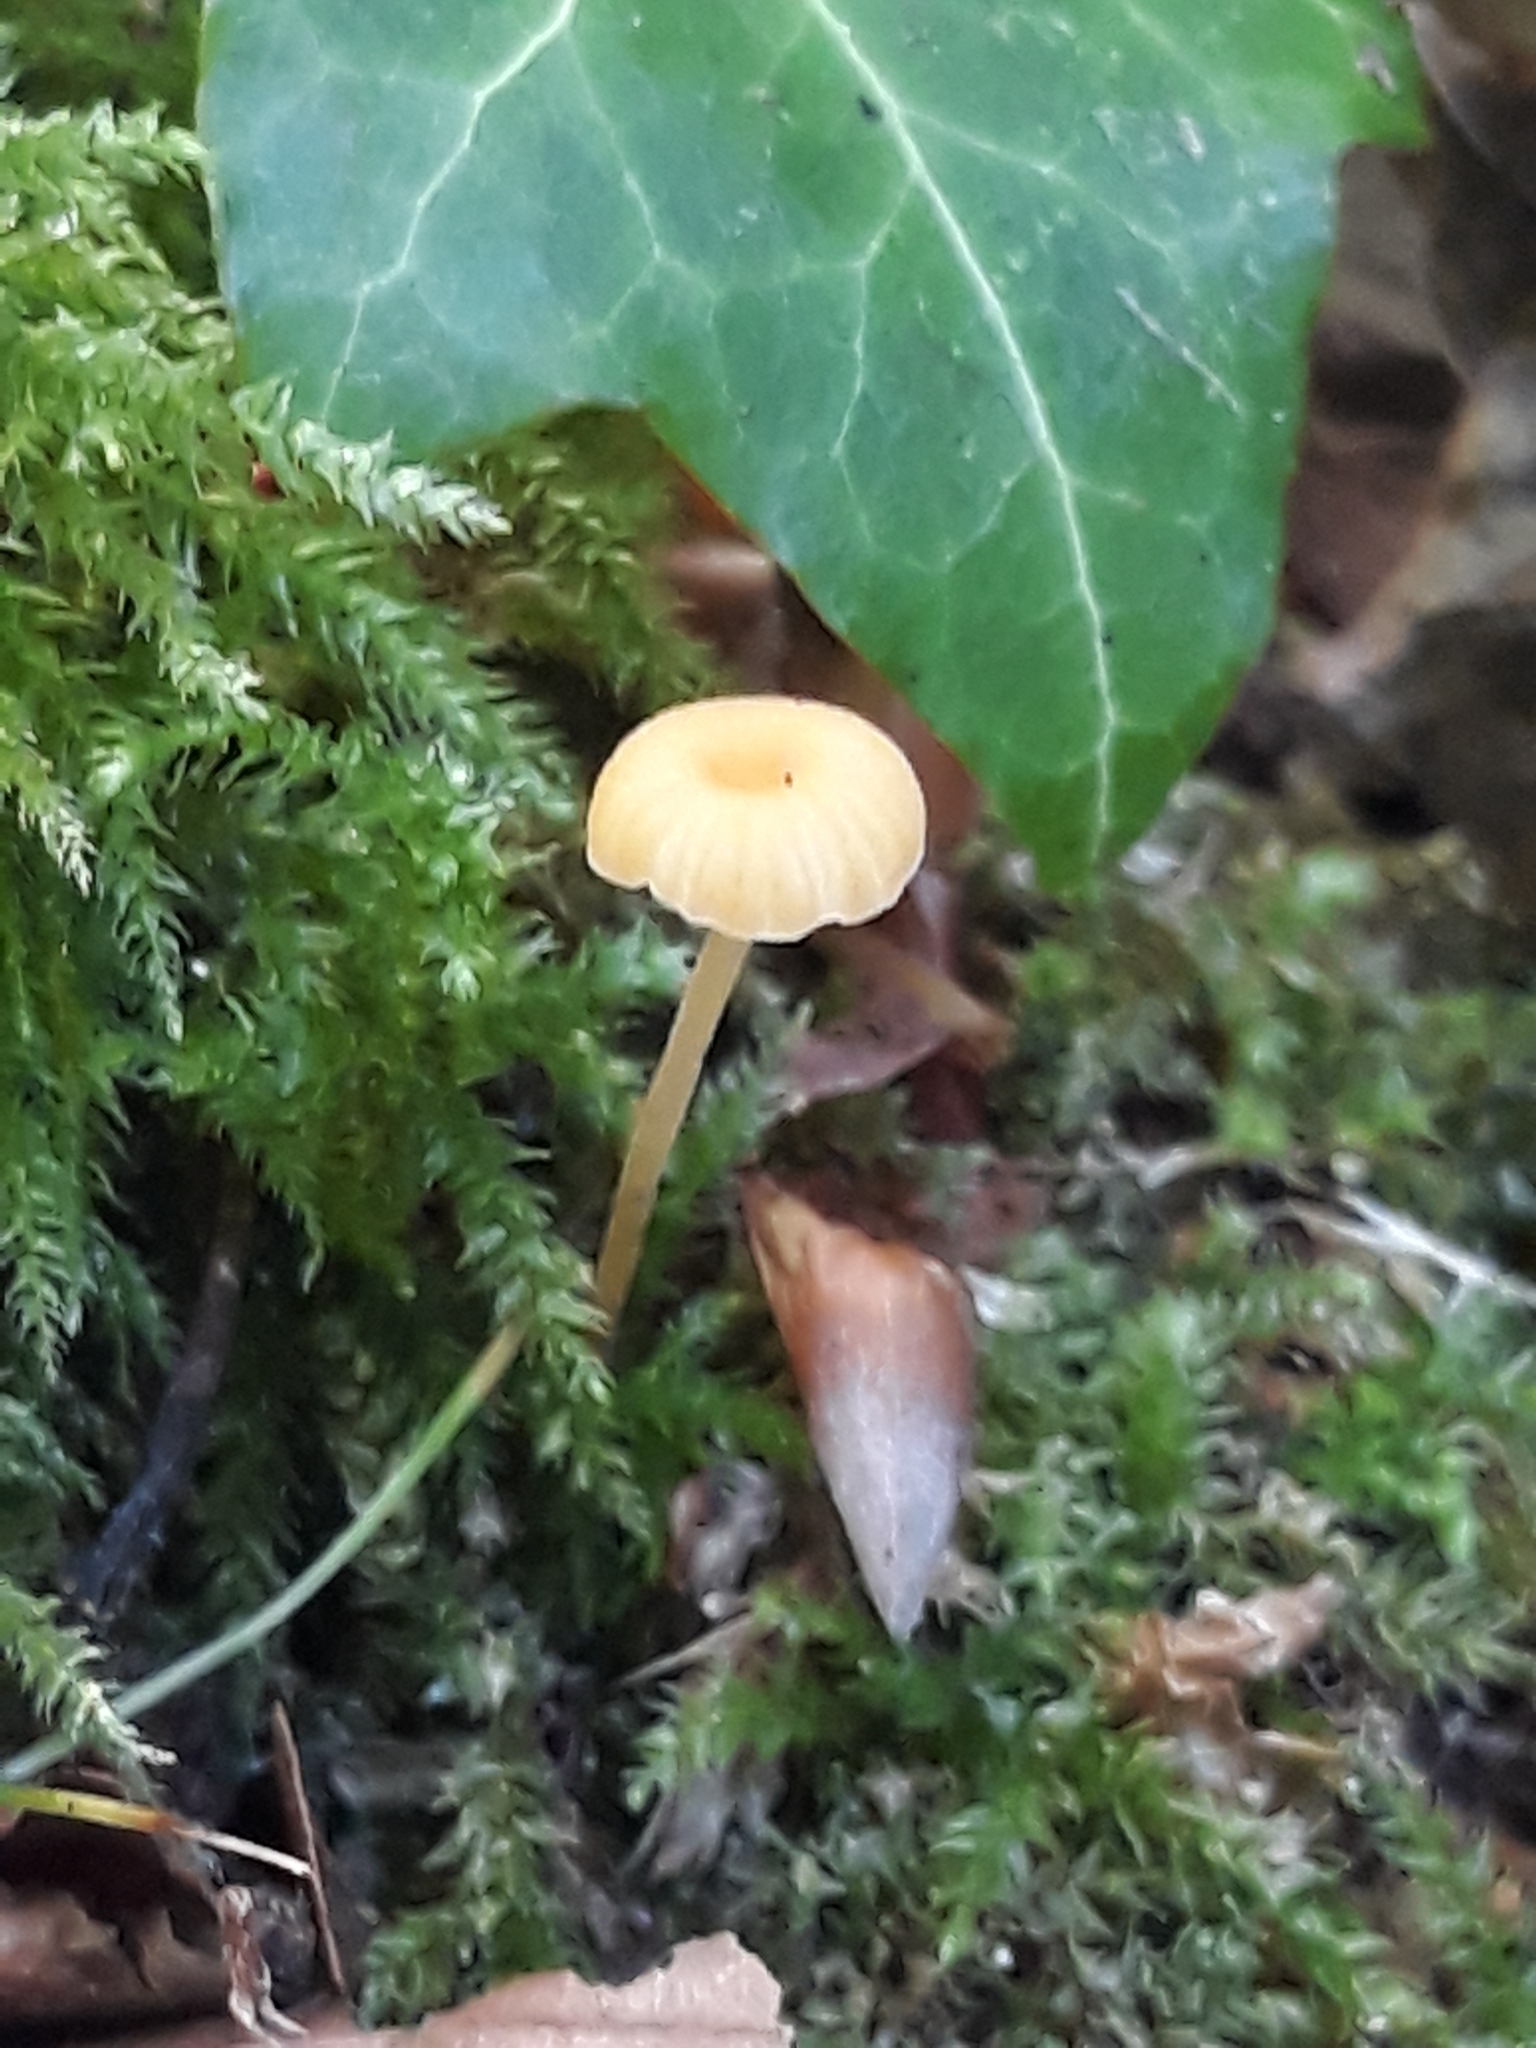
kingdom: Fungi
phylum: Basidiomycota
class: Agaricomycetes
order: Hymenochaetales
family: Rickenellaceae
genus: Rickenella
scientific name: Rickenella fibula
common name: Orange mosscap
